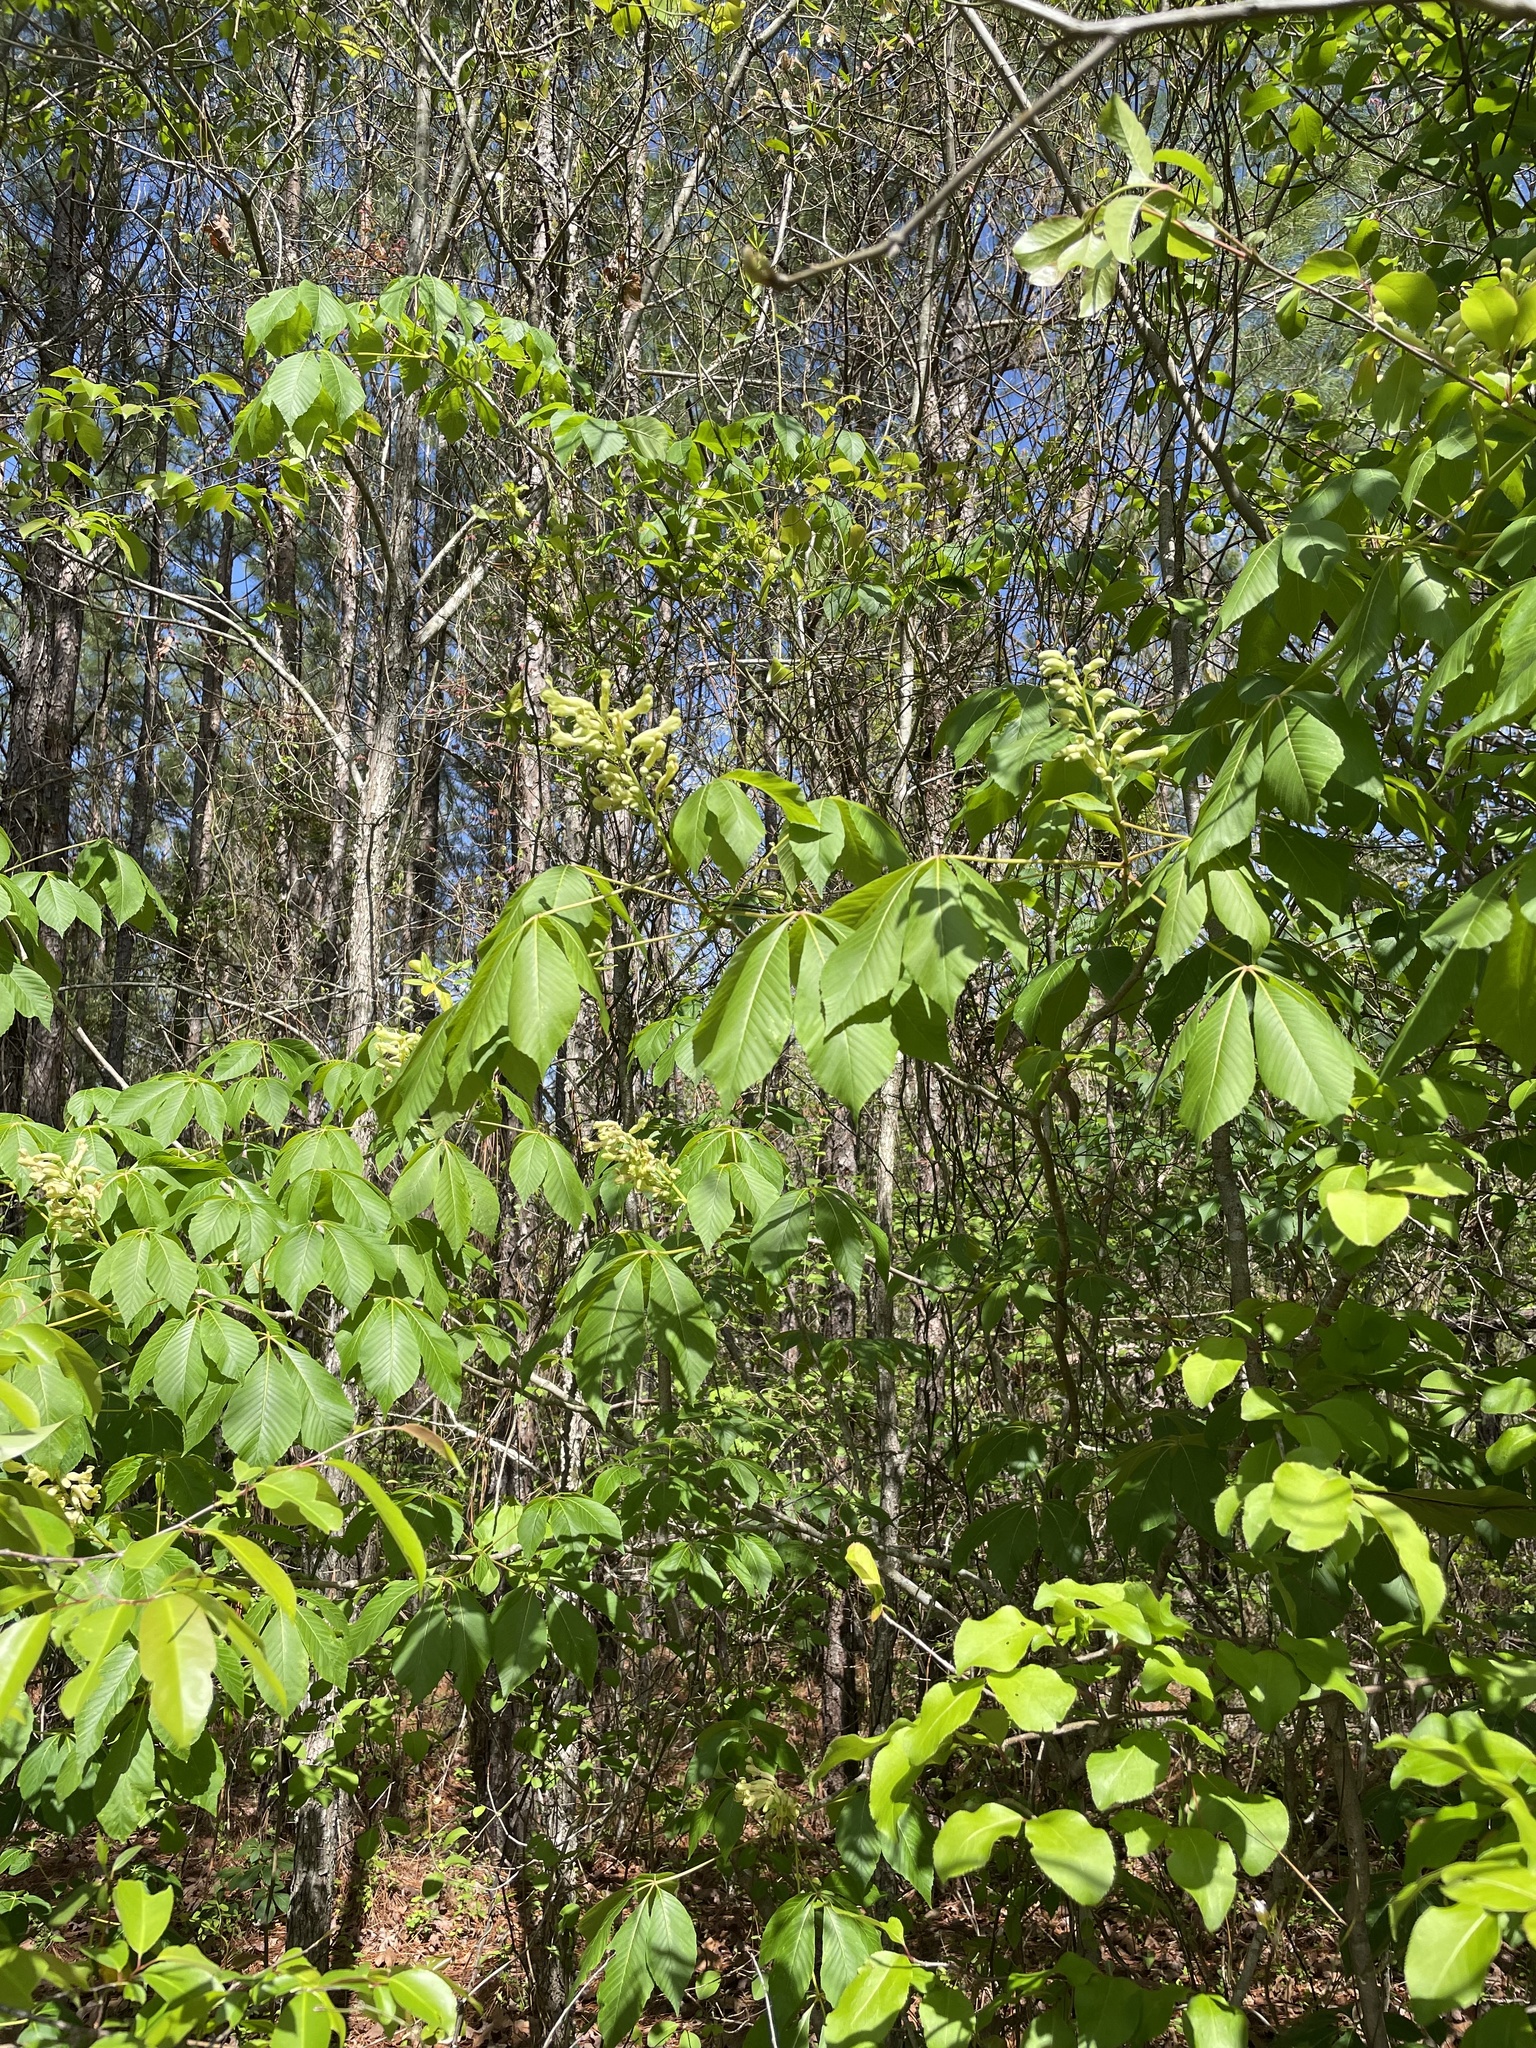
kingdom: Plantae
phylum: Tracheophyta
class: Magnoliopsida
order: Sapindales
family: Sapindaceae
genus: Aesculus
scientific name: Aesculus sylvatica
